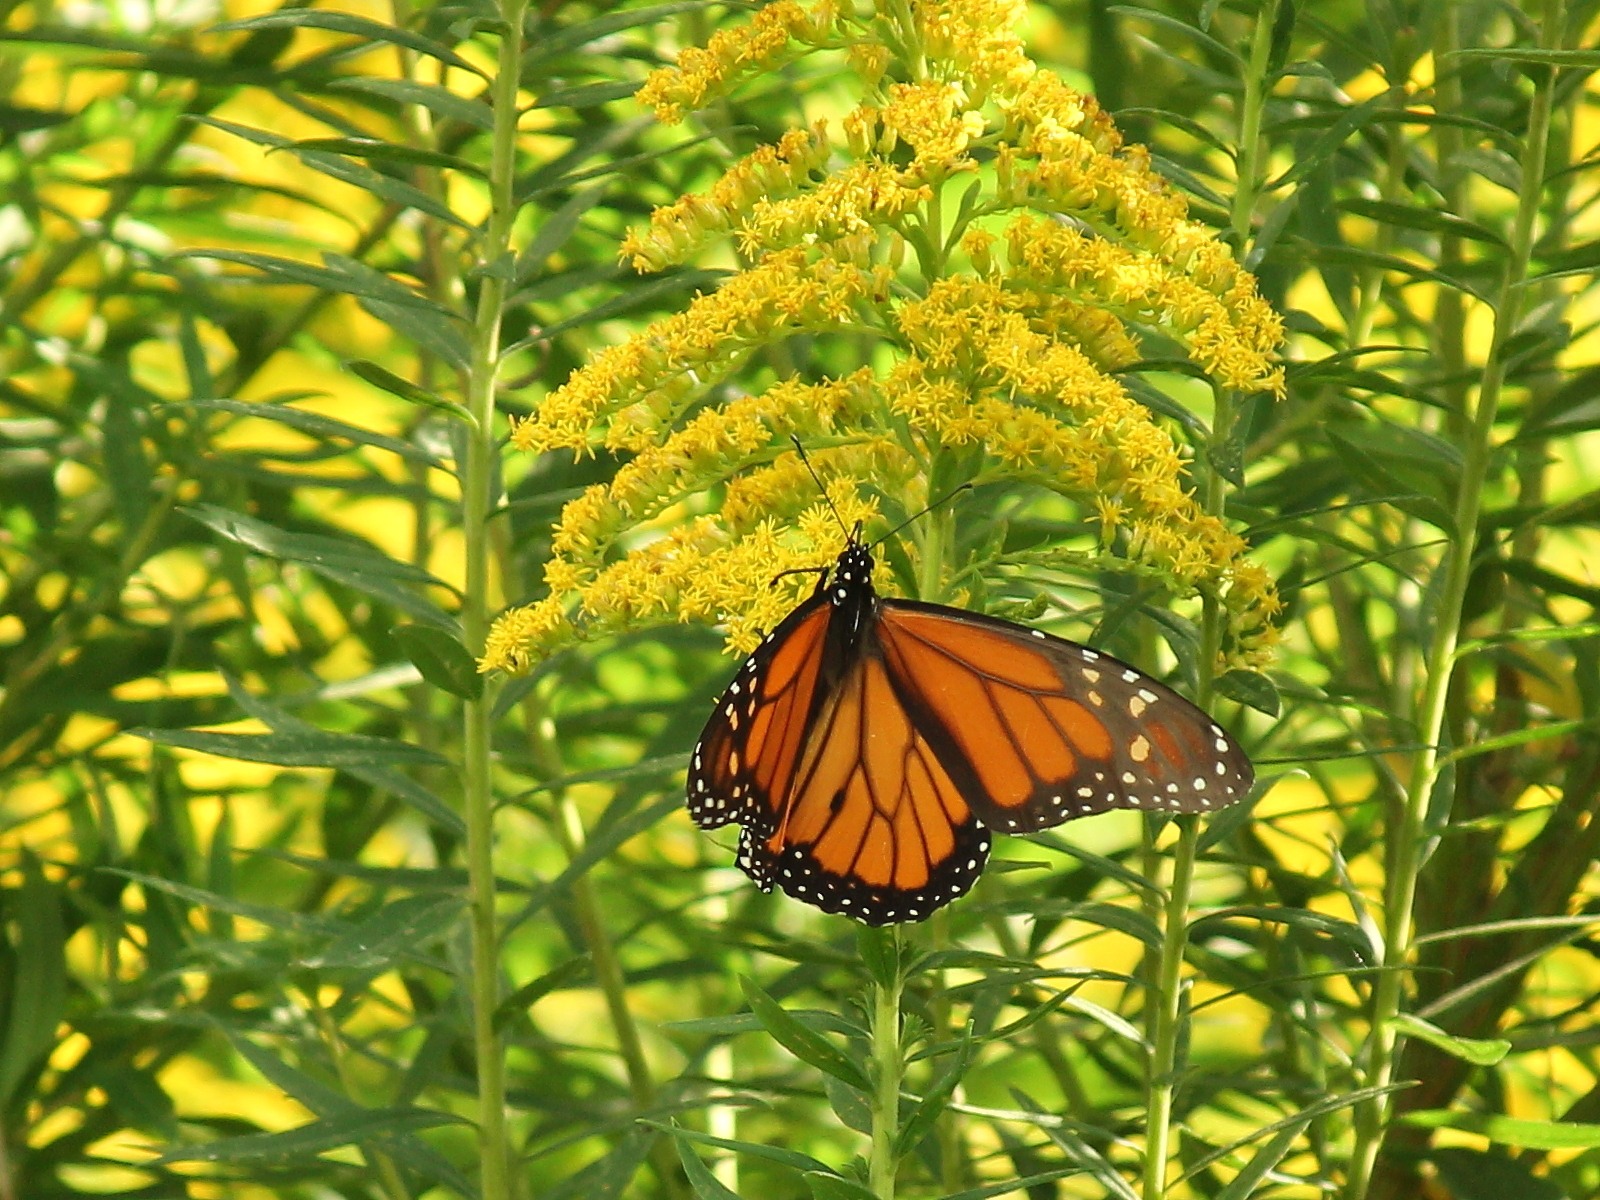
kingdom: Animalia
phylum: Arthropoda
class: Insecta
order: Lepidoptera
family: Nymphalidae
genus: Danaus
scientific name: Danaus plexippus
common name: Monarch
